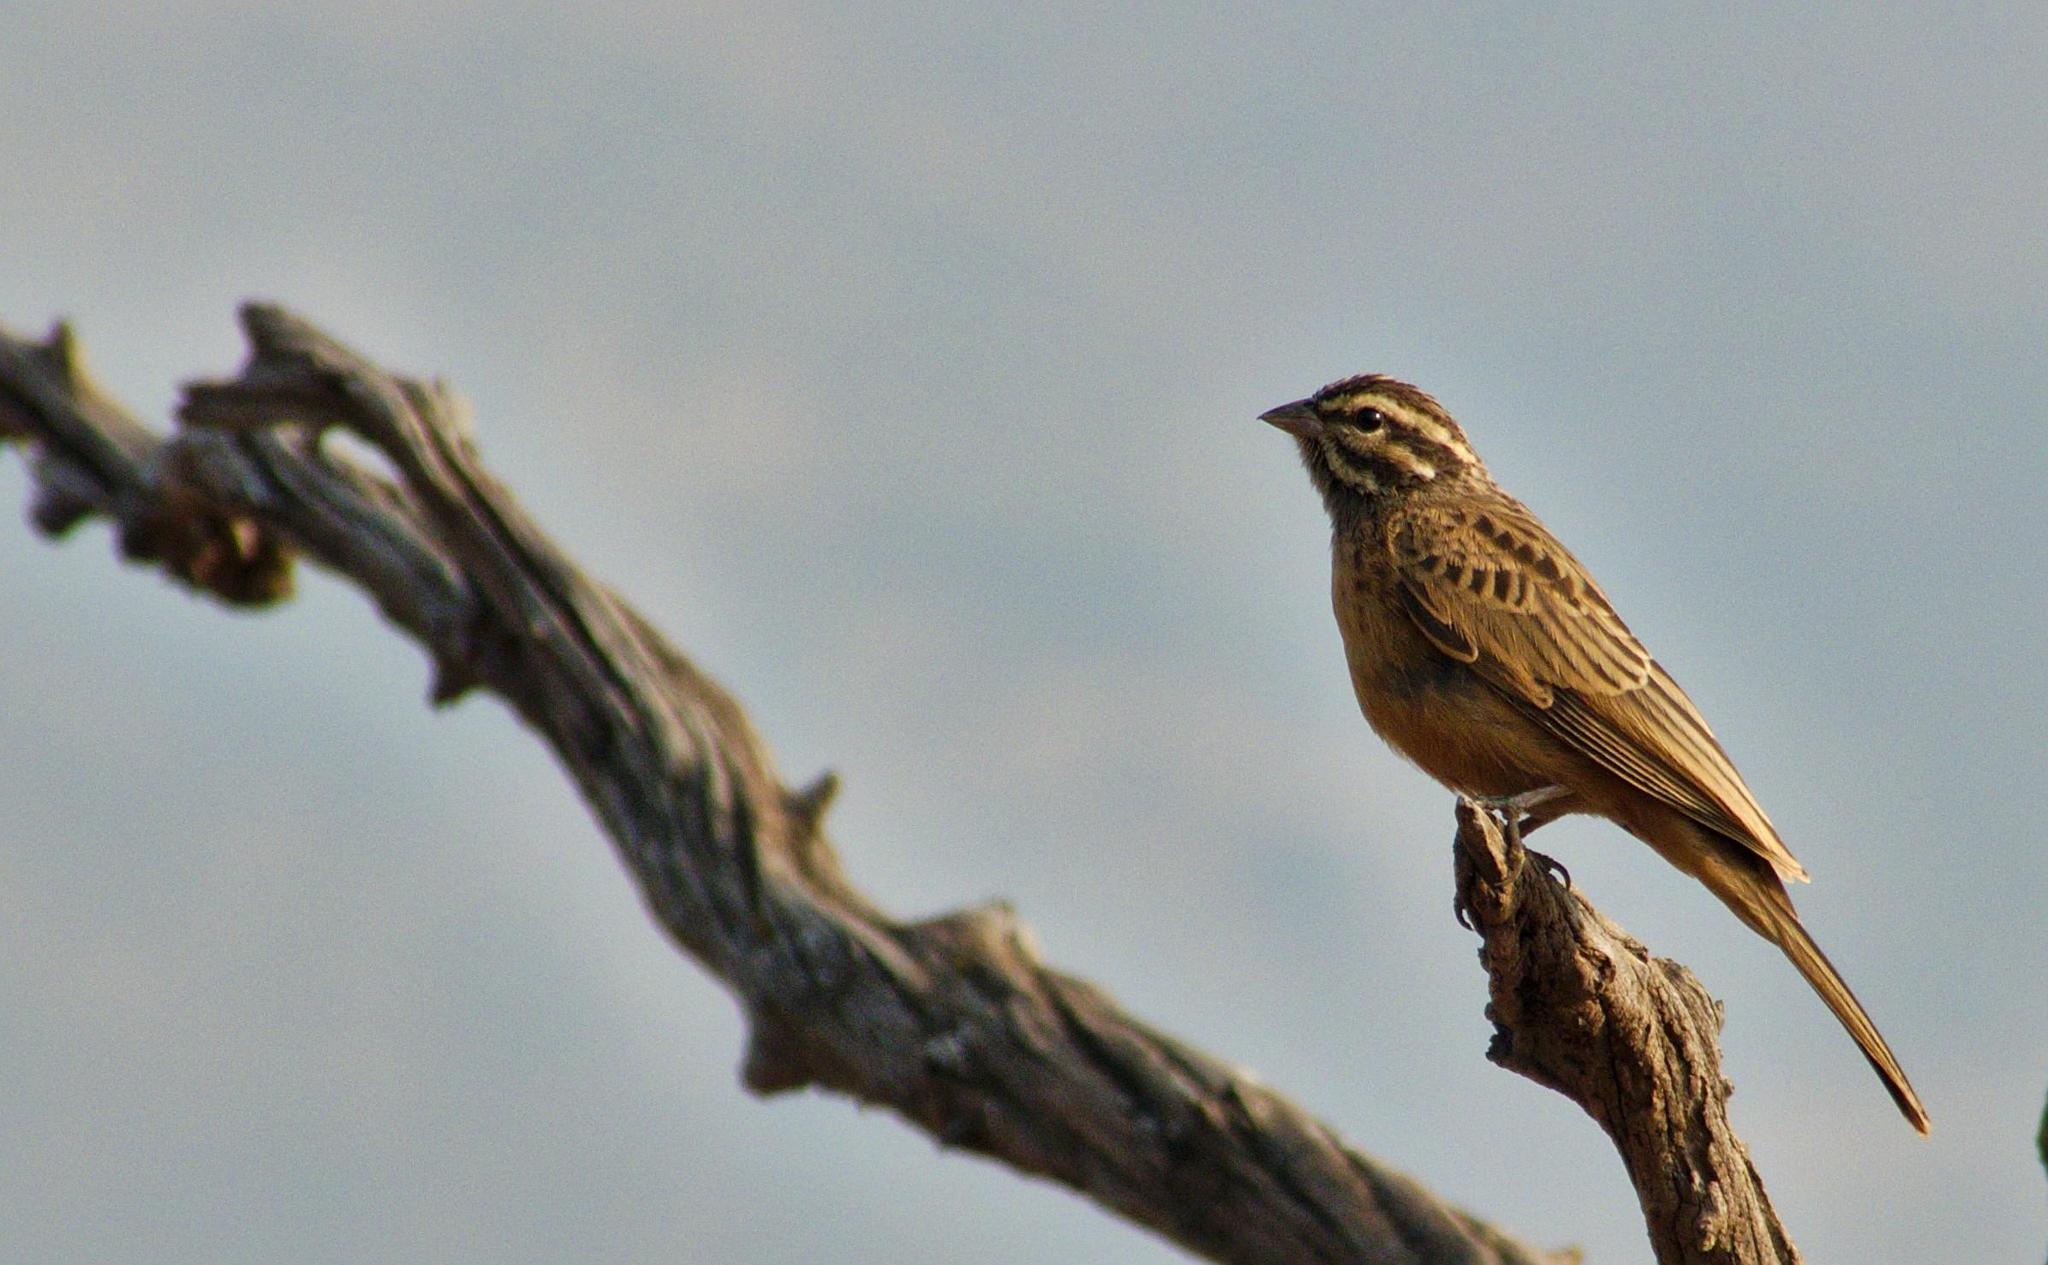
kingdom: Animalia
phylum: Chordata
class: Aves
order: Passeriformes
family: Emberizidae
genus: Emberiza
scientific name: Emberiza tahapisi
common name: Cinnamon-breasted bunting
